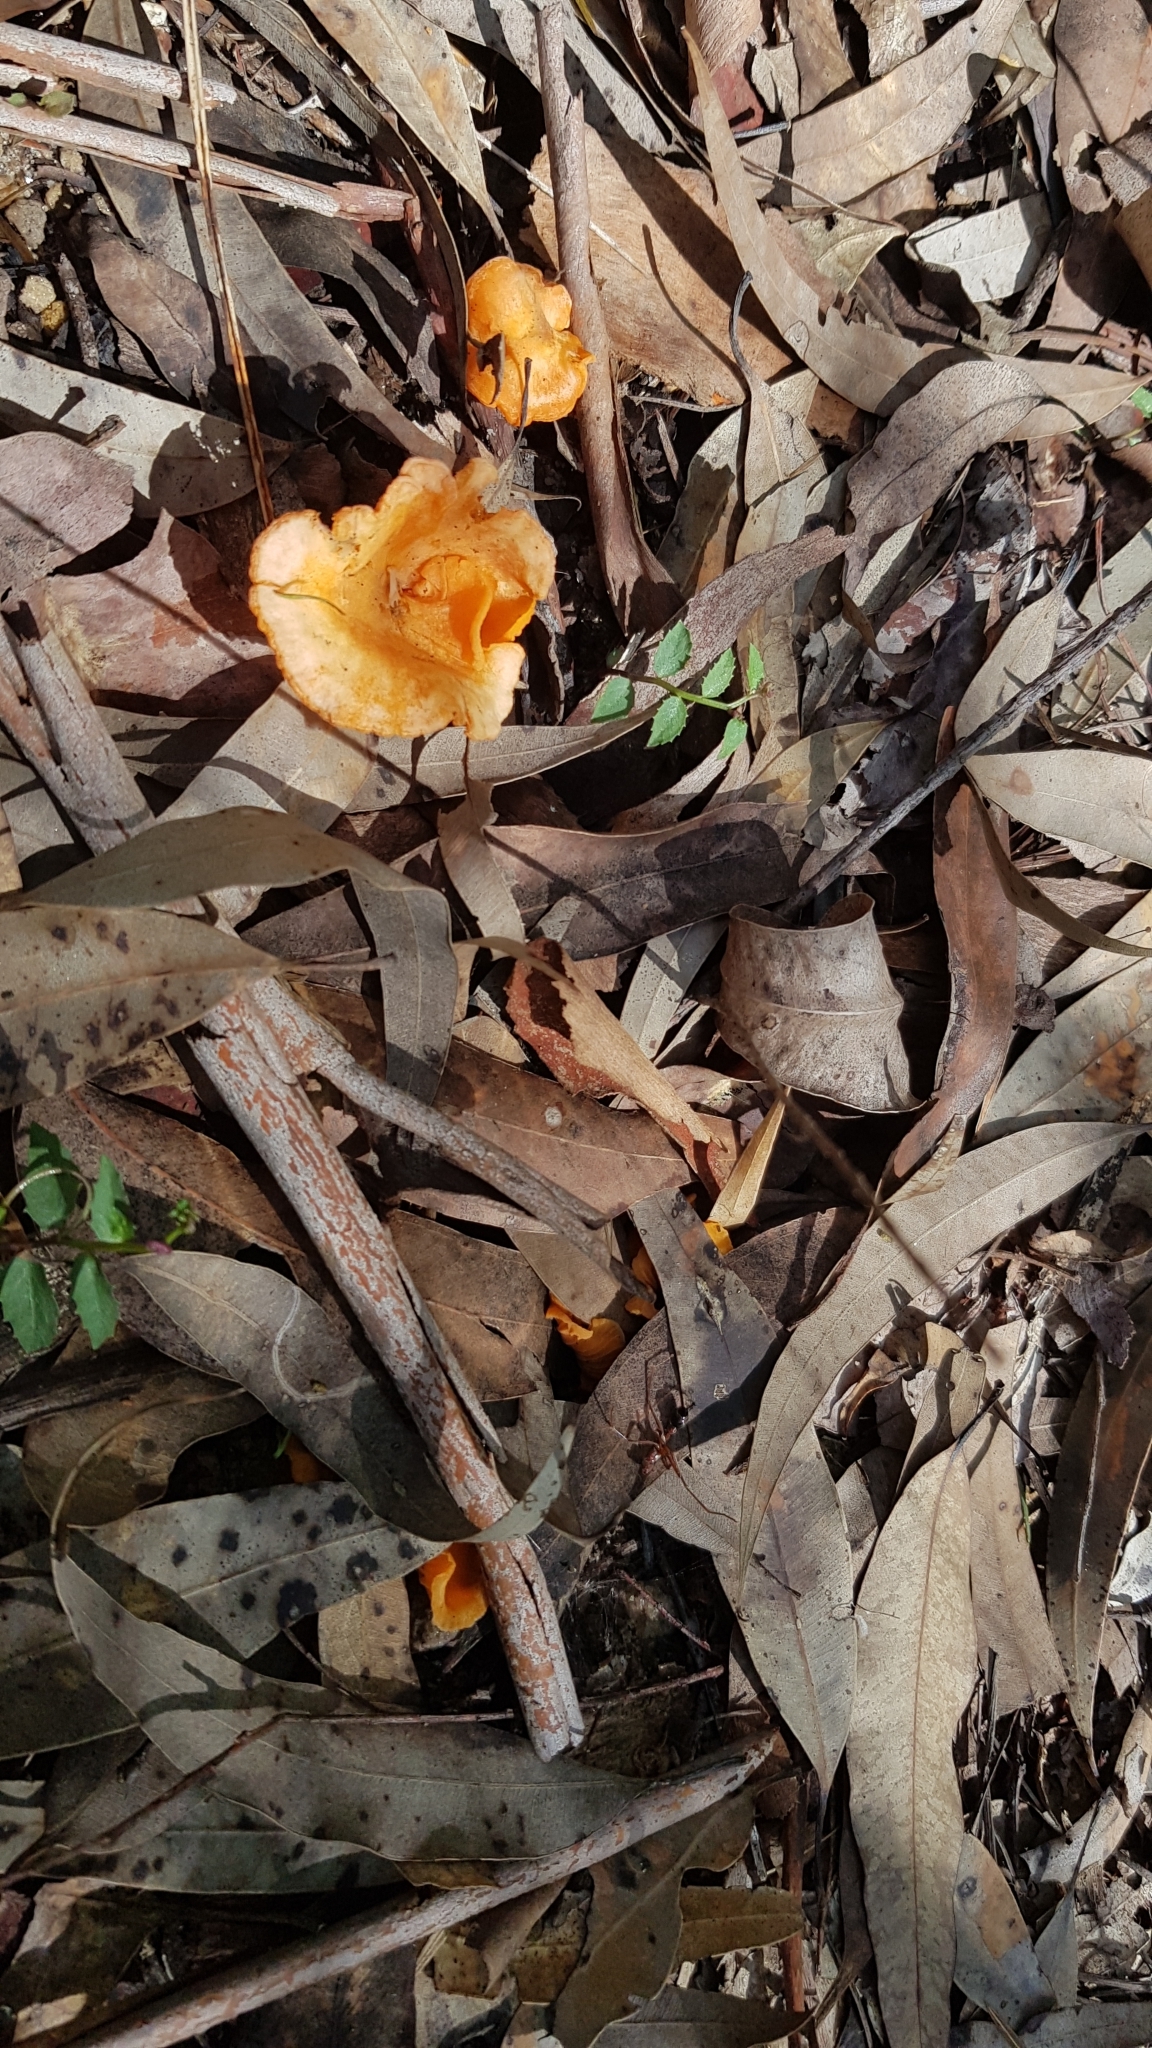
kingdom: Fungi
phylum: Basidiomycota
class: Agaricomycetes
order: Cantharellales
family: Hydnaceae
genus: Cantharellus
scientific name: Cantharellus
